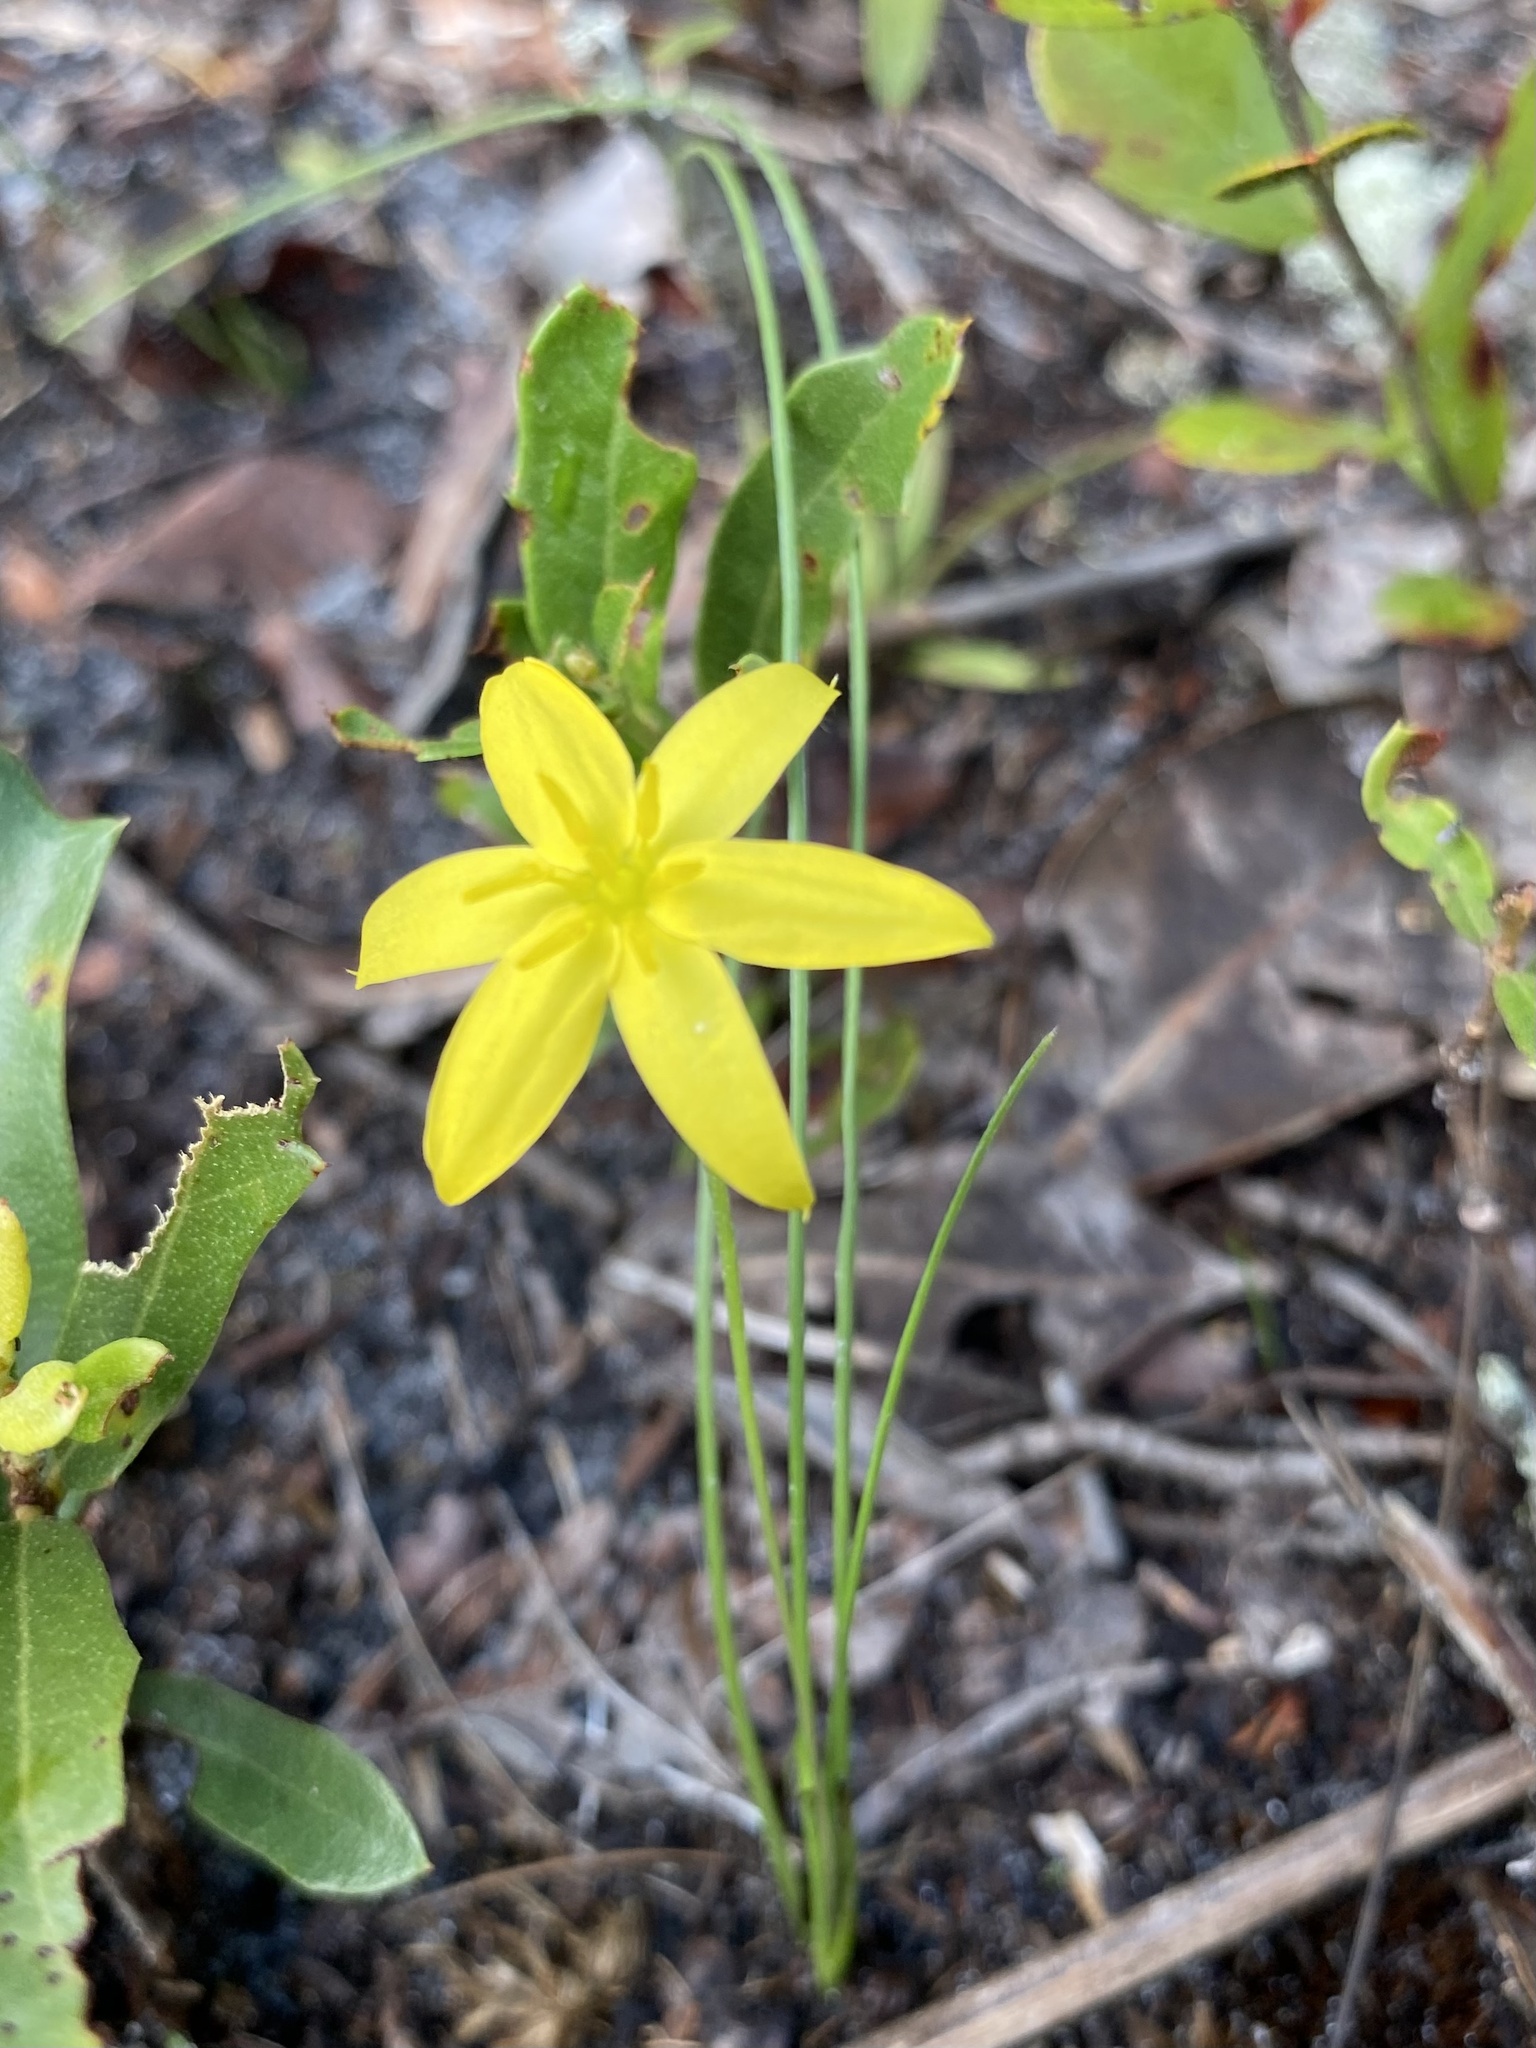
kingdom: Plantae
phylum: Tracheophyta
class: Liliopsida
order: Asparagales
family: Hypoxidaceae
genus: Hypoxis
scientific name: Hypoxis juncea
